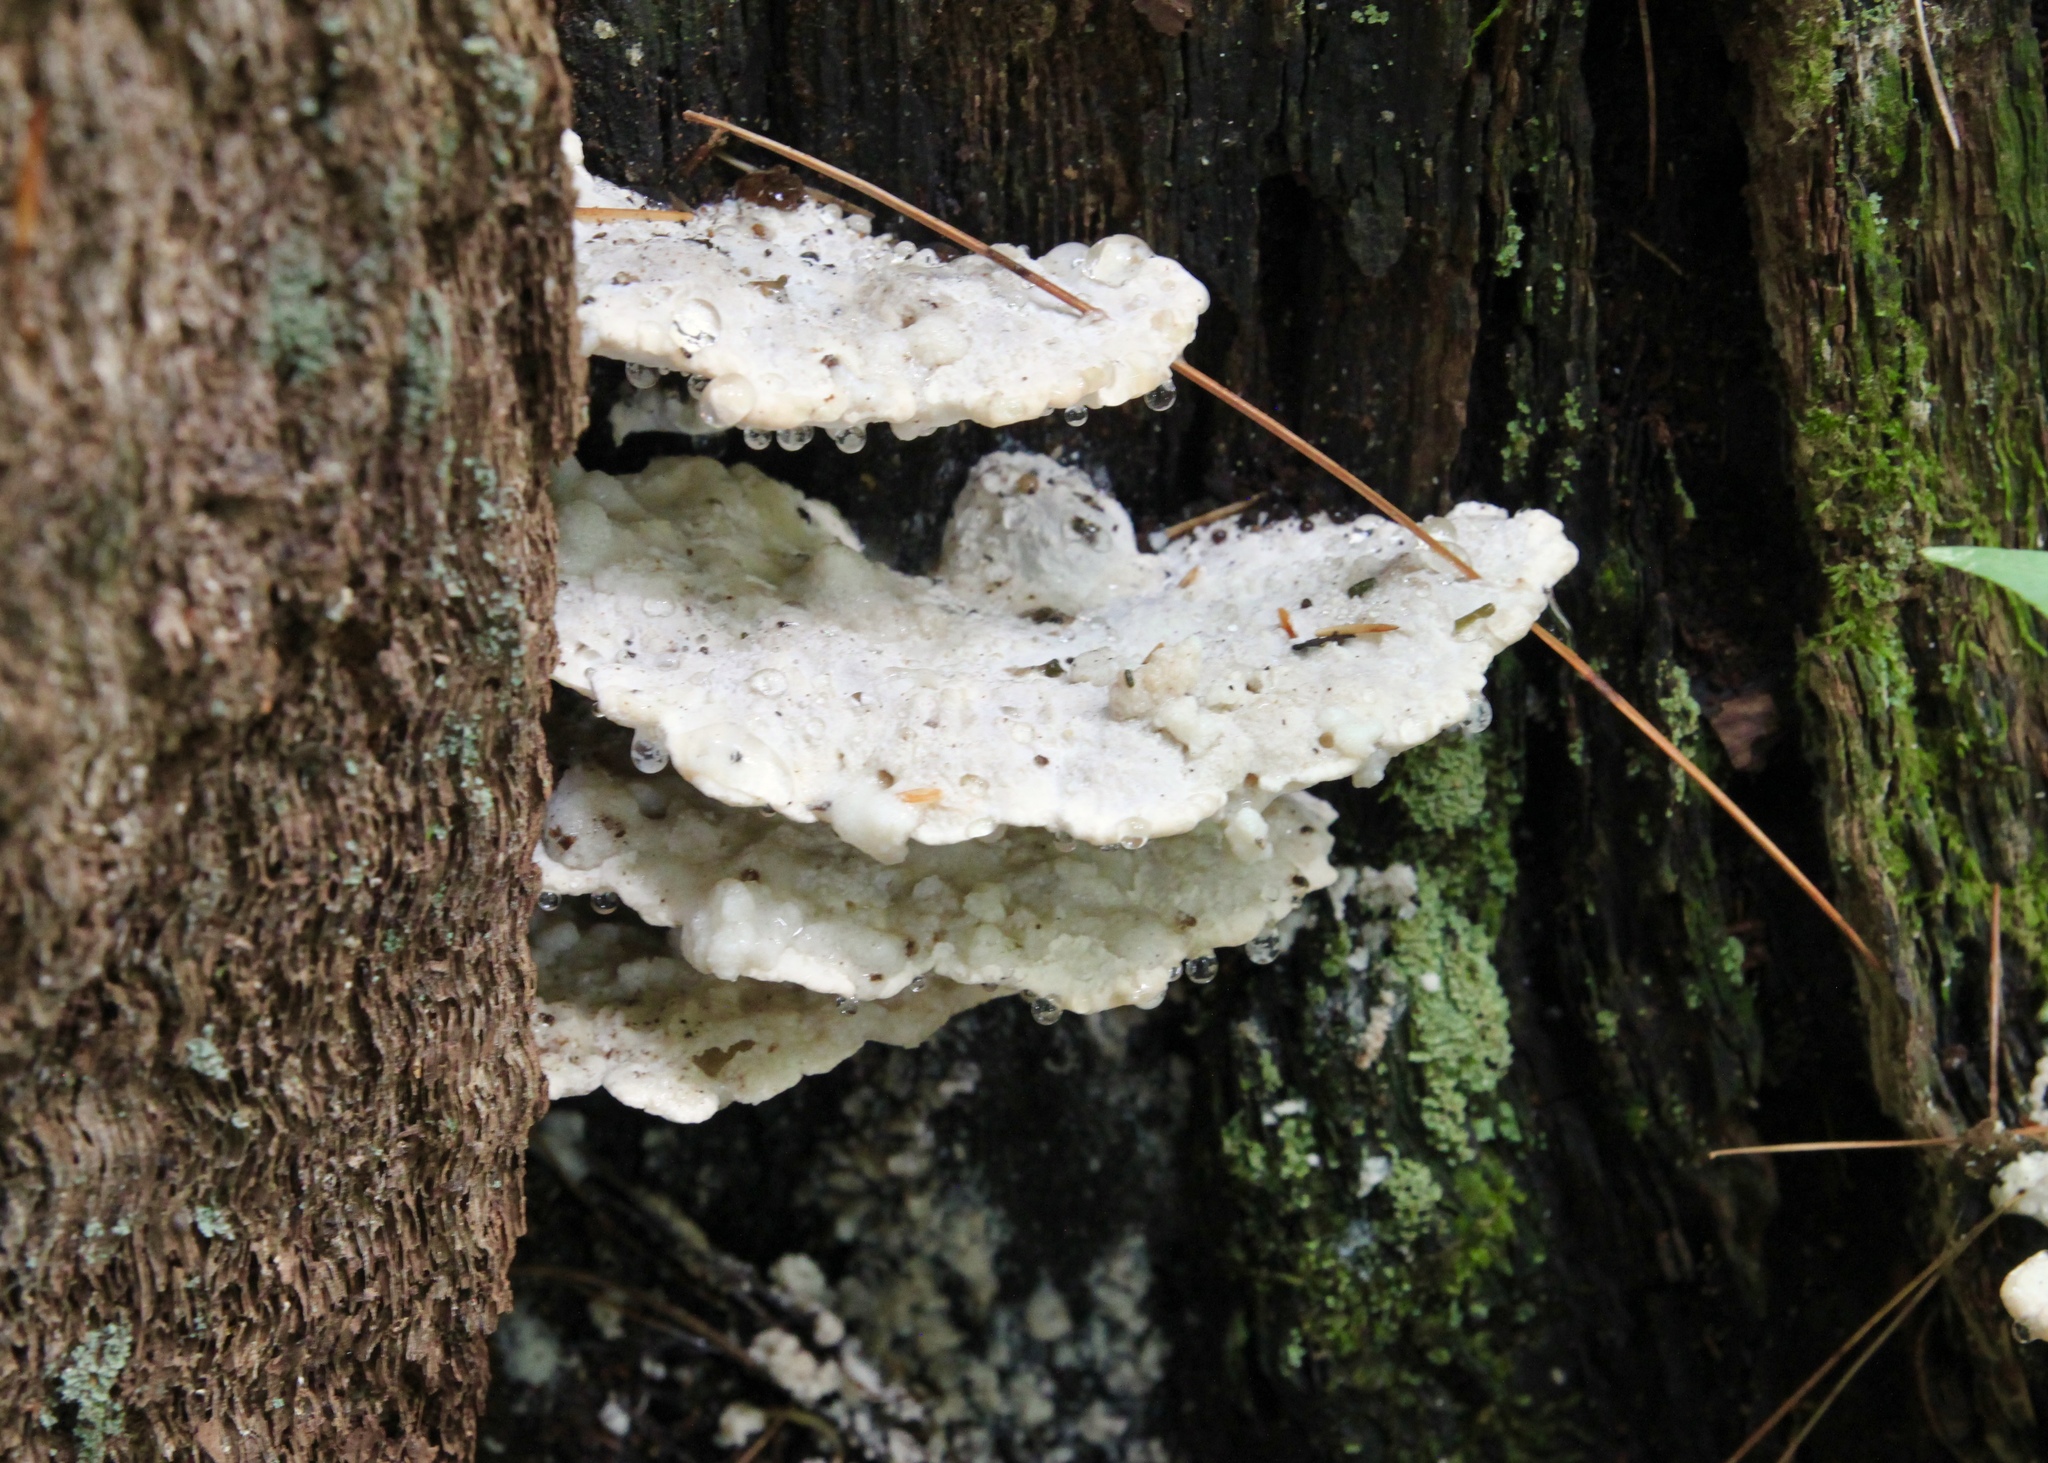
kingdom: Fungi
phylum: Basidiomycota
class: Agaricomycetes
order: Polyporales
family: Fomitopsidaceae
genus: Niveoporofomes
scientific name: Niveoporofomes spraguei
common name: Green cheese polypore
